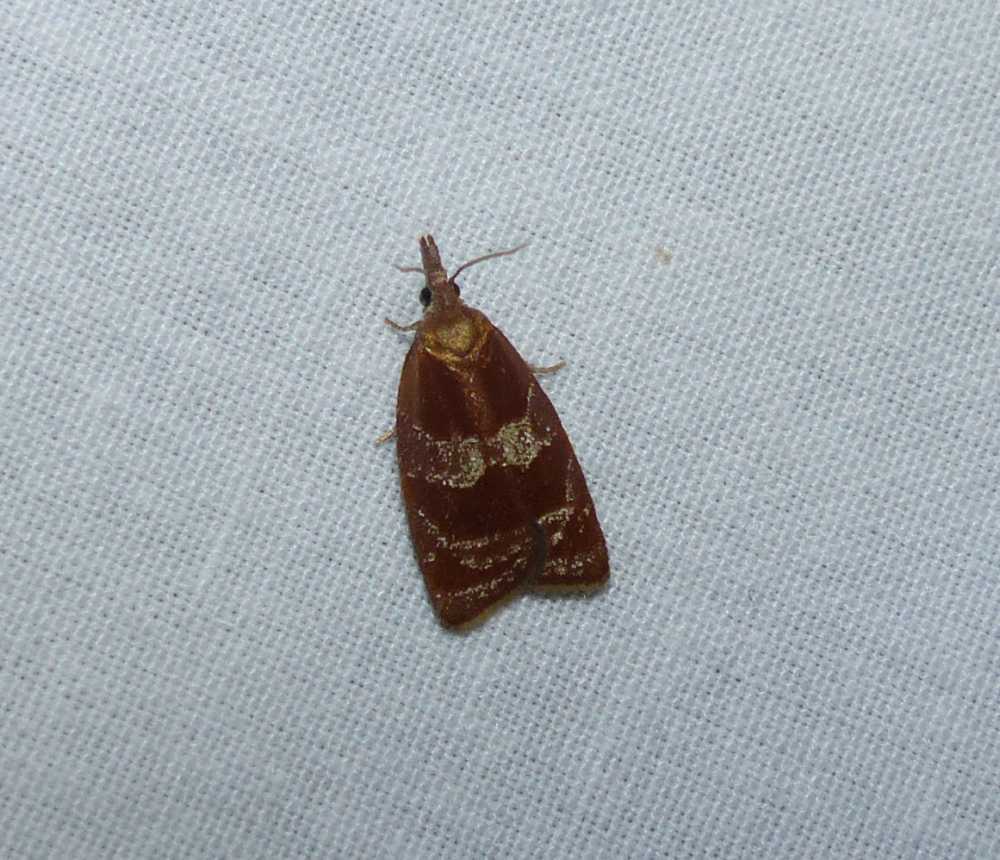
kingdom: Animalia
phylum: Arthropoda
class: Insecta
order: Lepidoptera
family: Tortricidae
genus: Cenopis
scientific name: Cenopis diluticostana
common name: Spring dead-leaf roller moth
